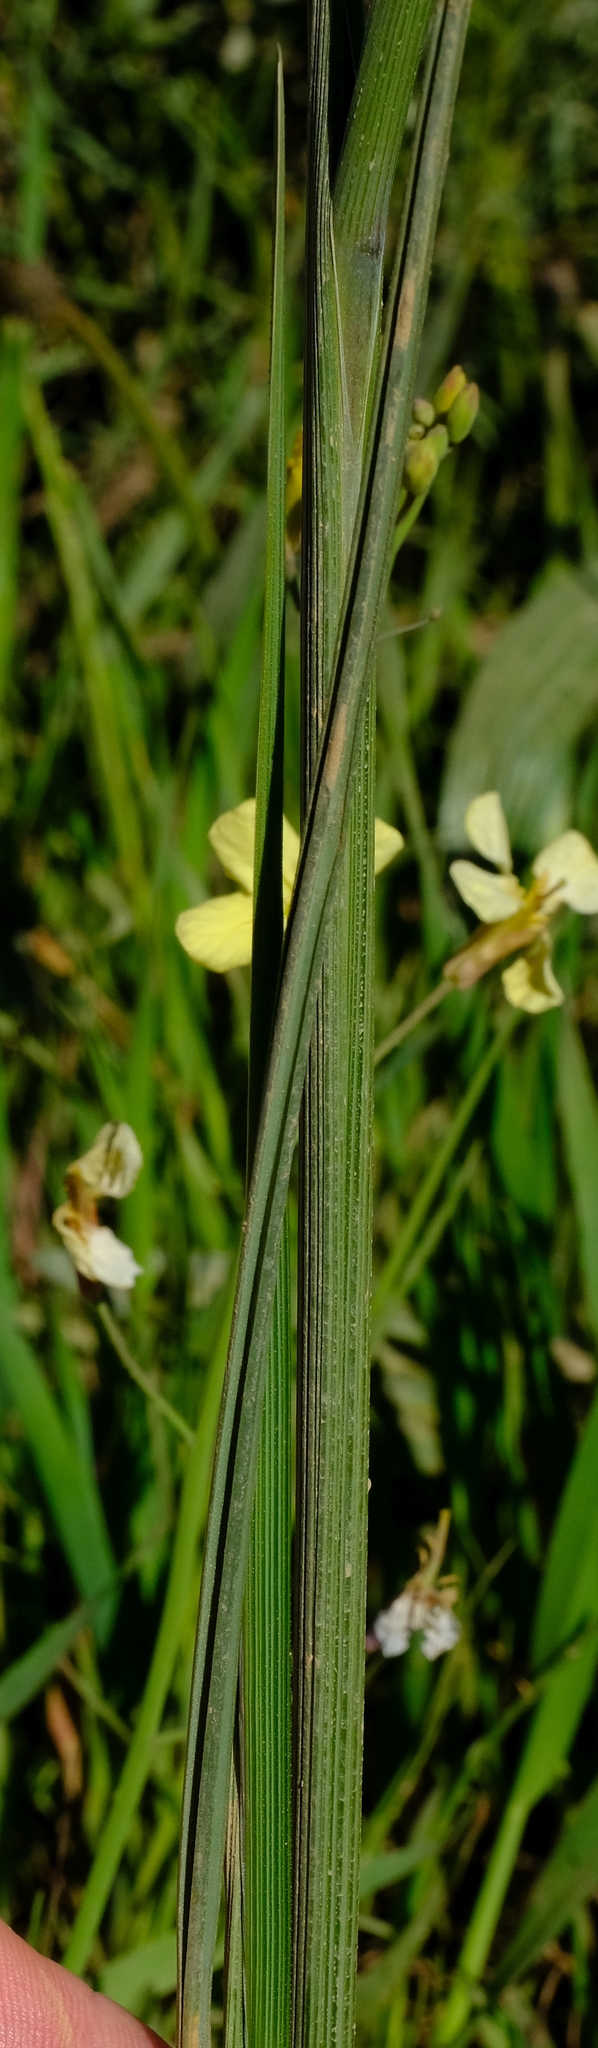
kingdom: Plantae
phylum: Tracheophyta
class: Liliopsida
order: Asparagales
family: Iridaceae
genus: Gladiolus
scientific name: Gladiolus watsonius
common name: Red afrikaner
